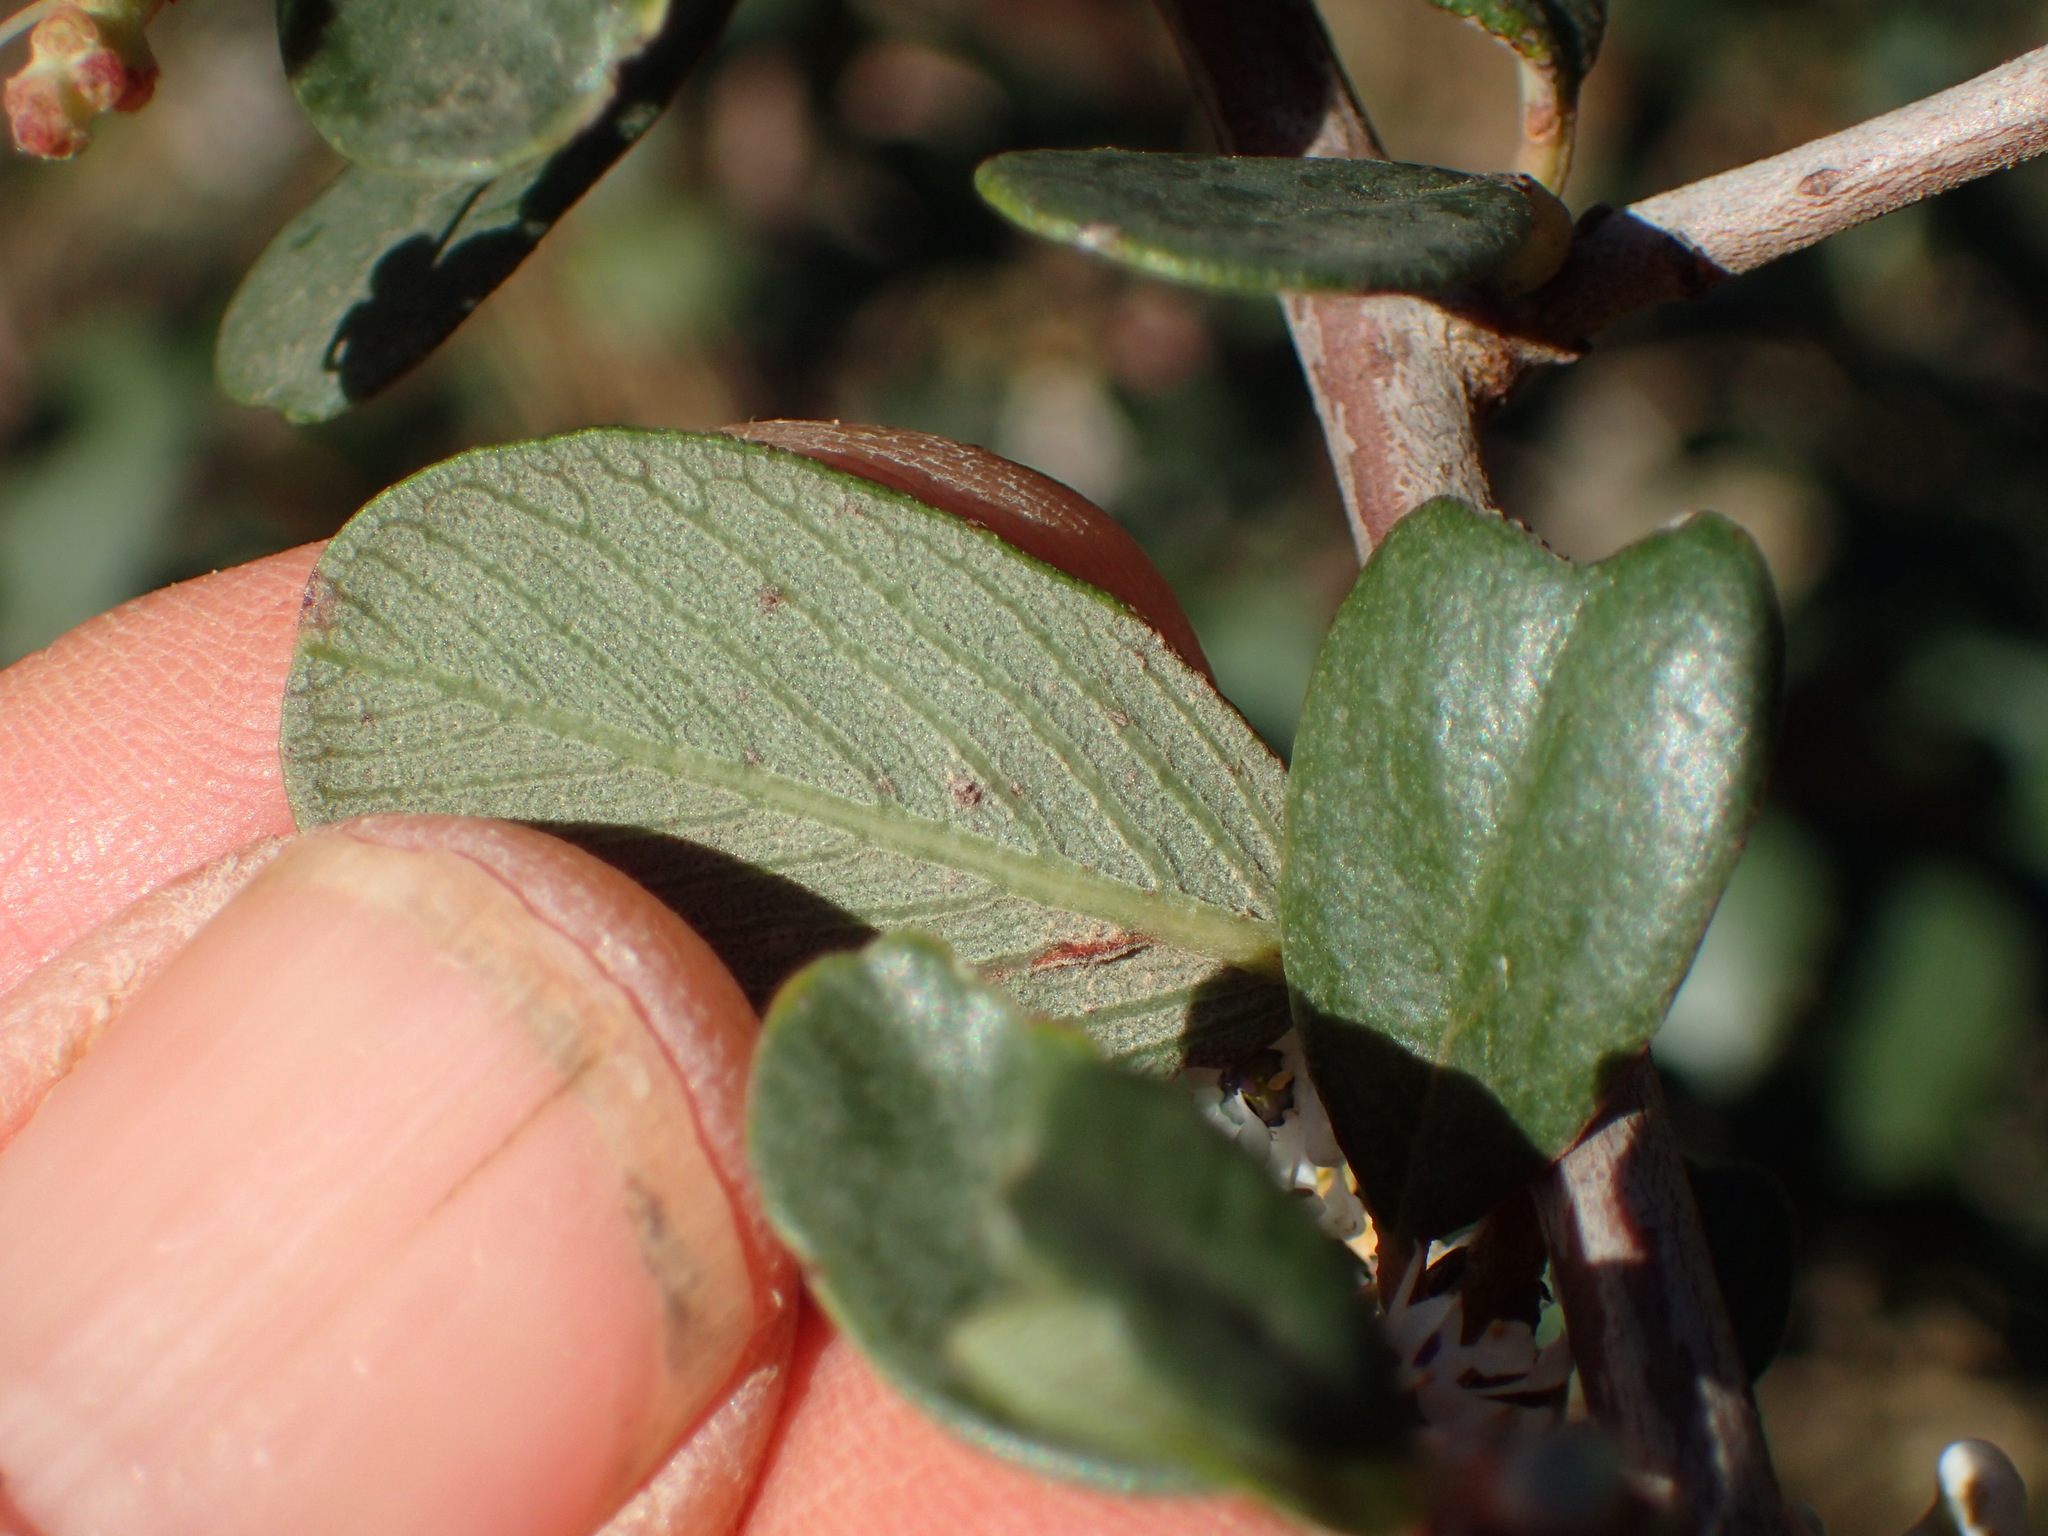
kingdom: Plantae
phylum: Tracheophyta
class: Magnoliopsida
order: Rosales
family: Rhamnaceae
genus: Ceanothus
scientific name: Ceanothus megacarpus
